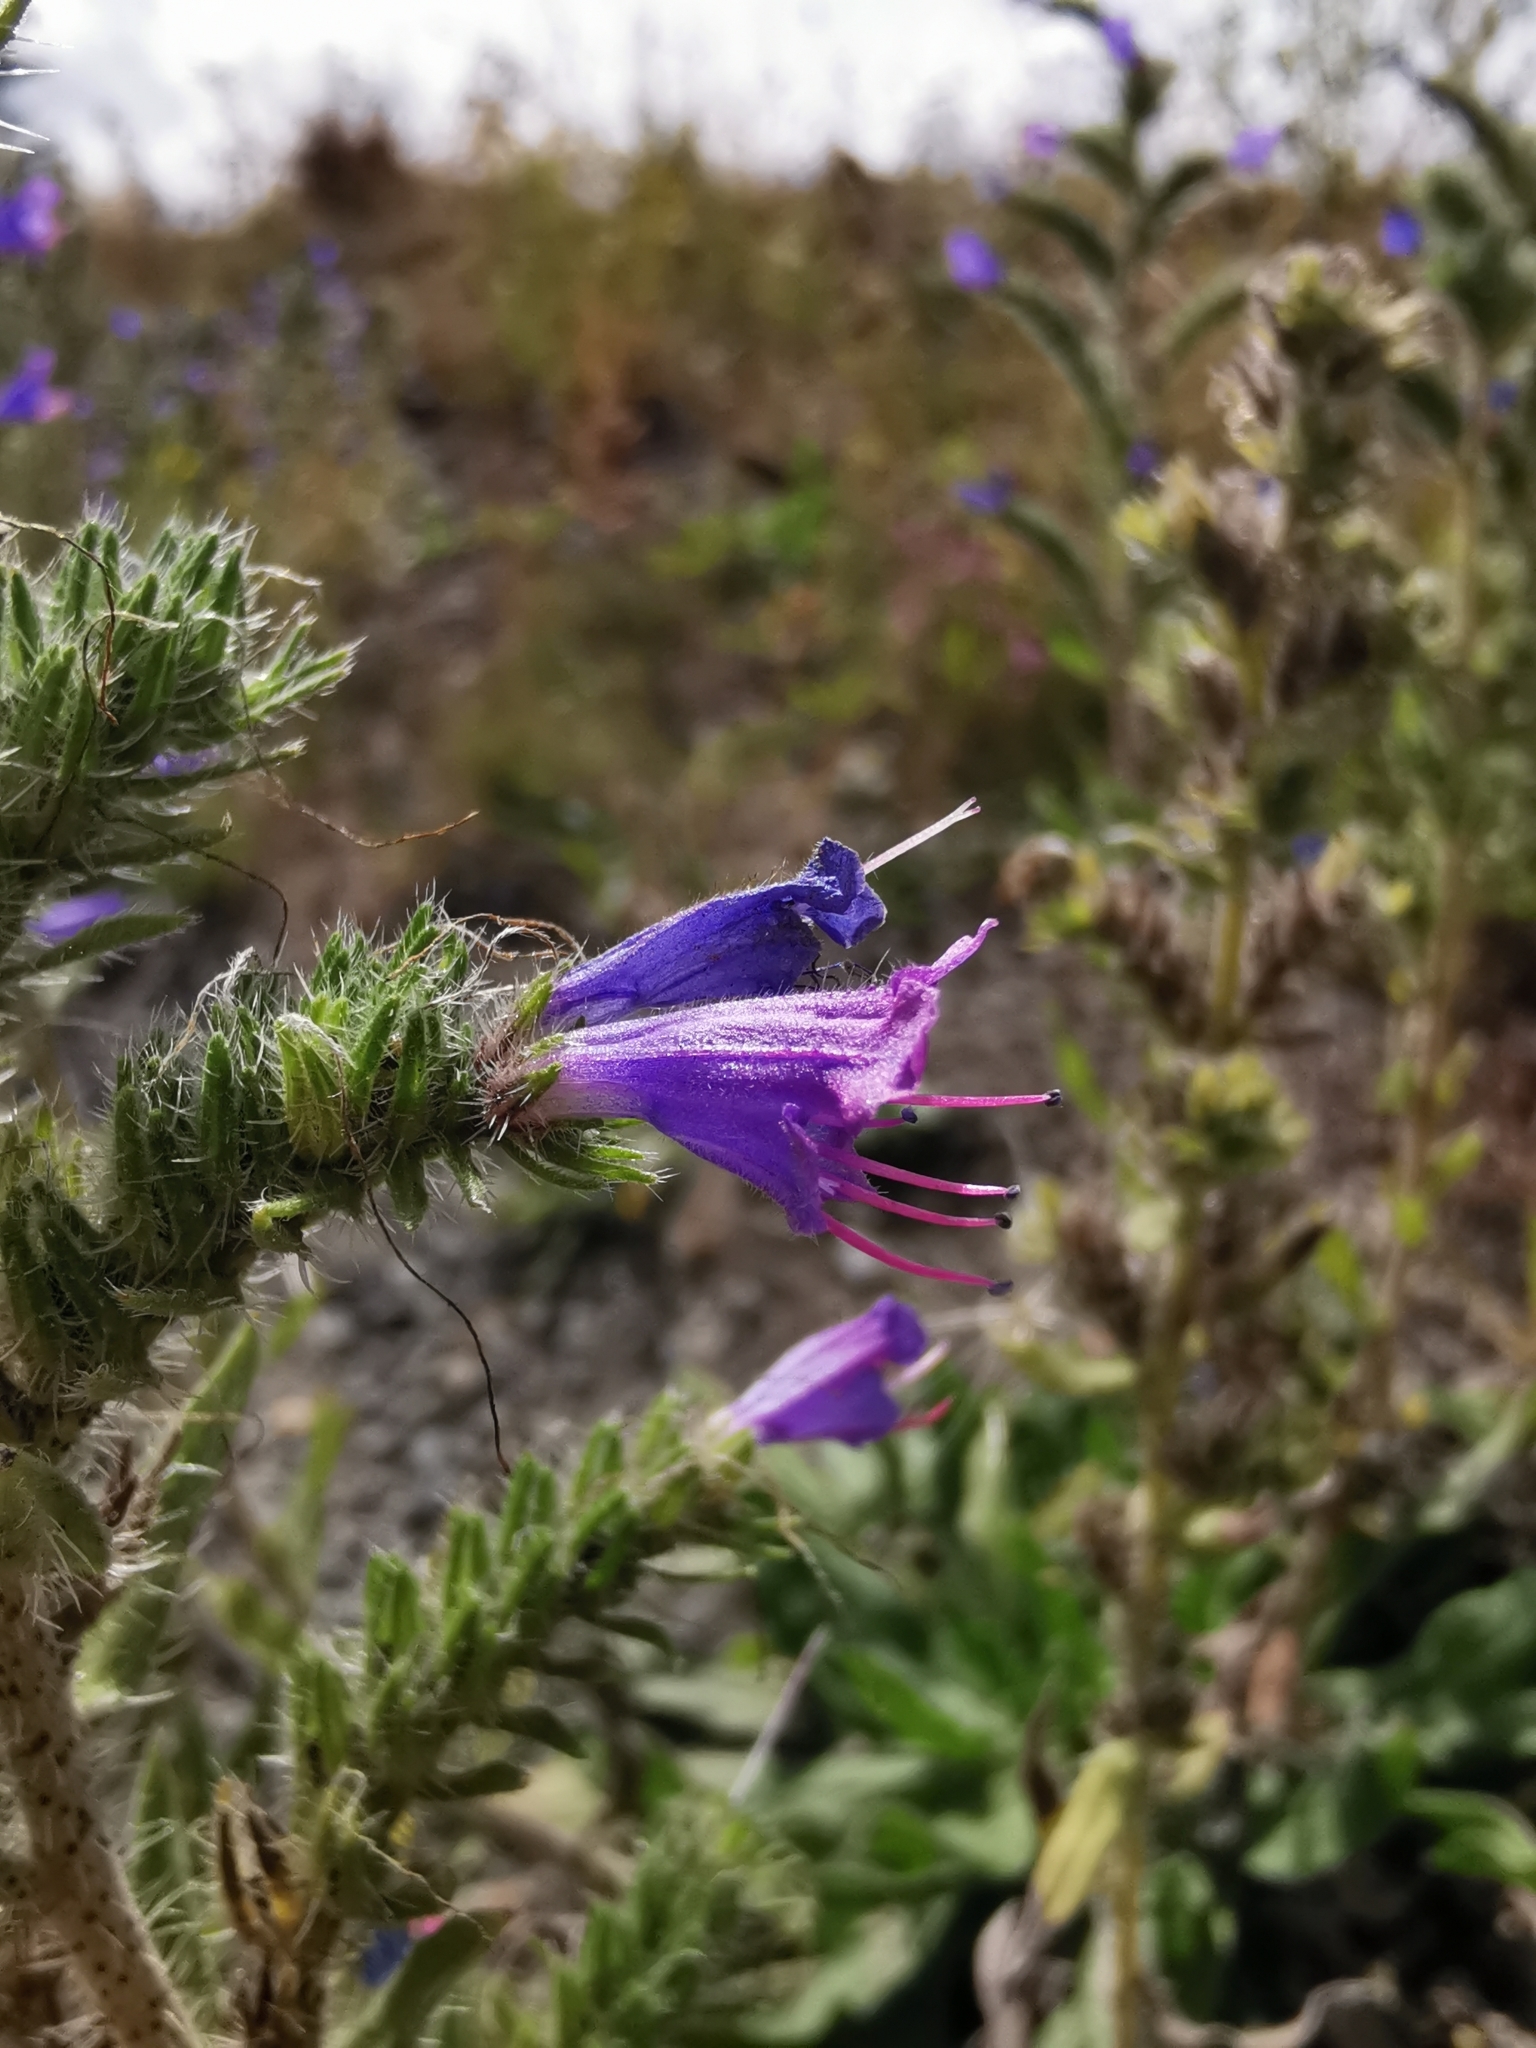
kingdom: Plantae
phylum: Tracheophyta
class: Magnoliopsida
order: Boraginales
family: Boraginaceae
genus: Echium
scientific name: Echium vulgare
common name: Common viper's bugloss
